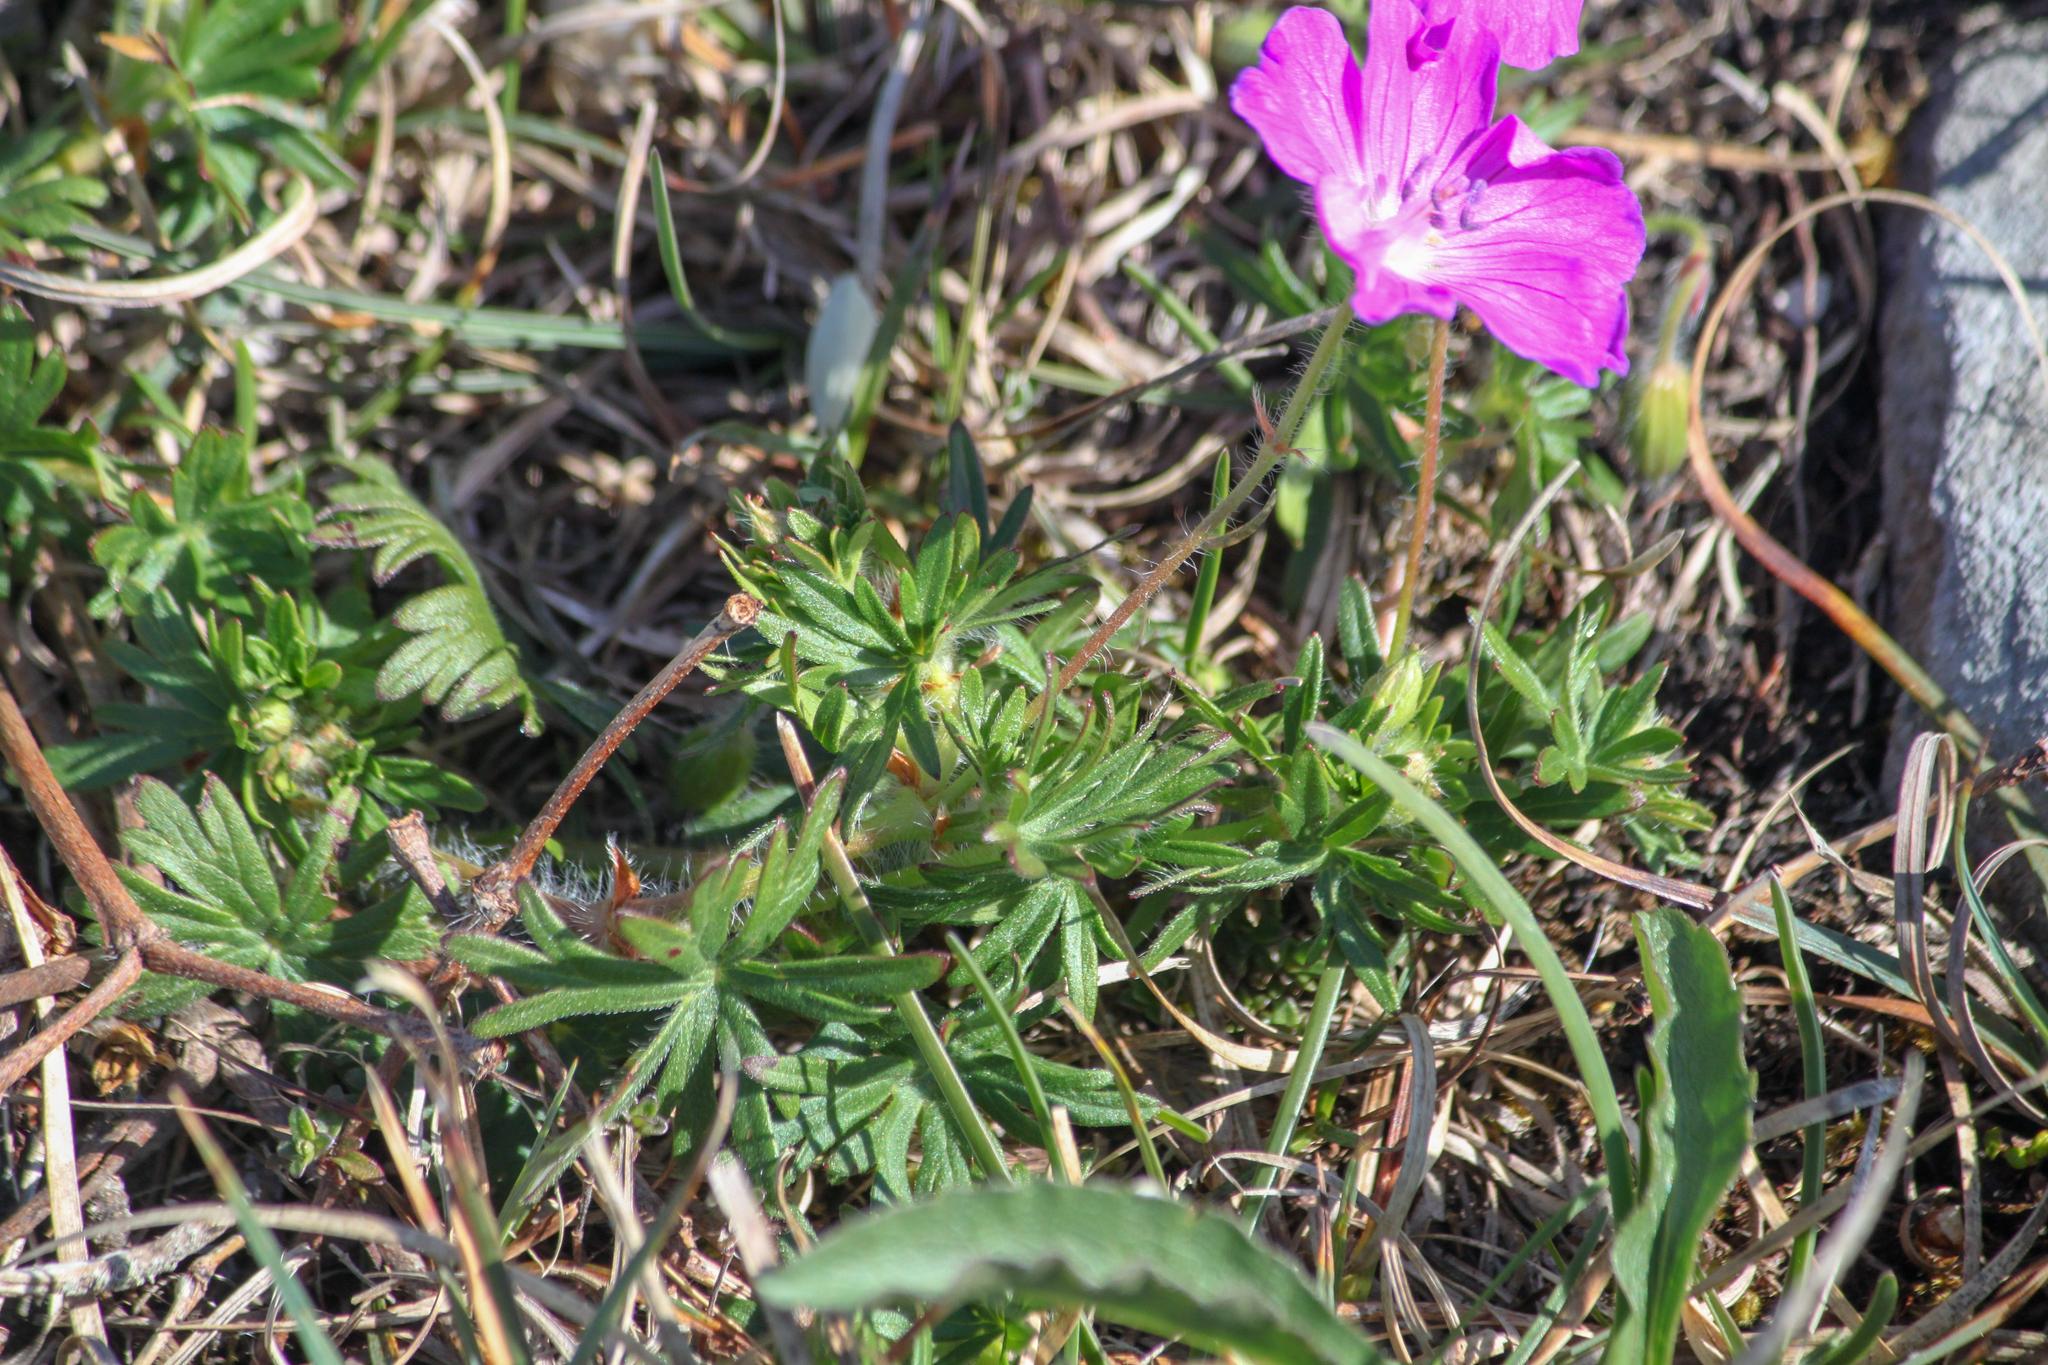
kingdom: Plantae
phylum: Tracheophyta
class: Magnoliopsida
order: Geraniales
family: Geraniaceae
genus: Geranium
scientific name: Geranium sanguineum
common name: Bloody crane's-bill
